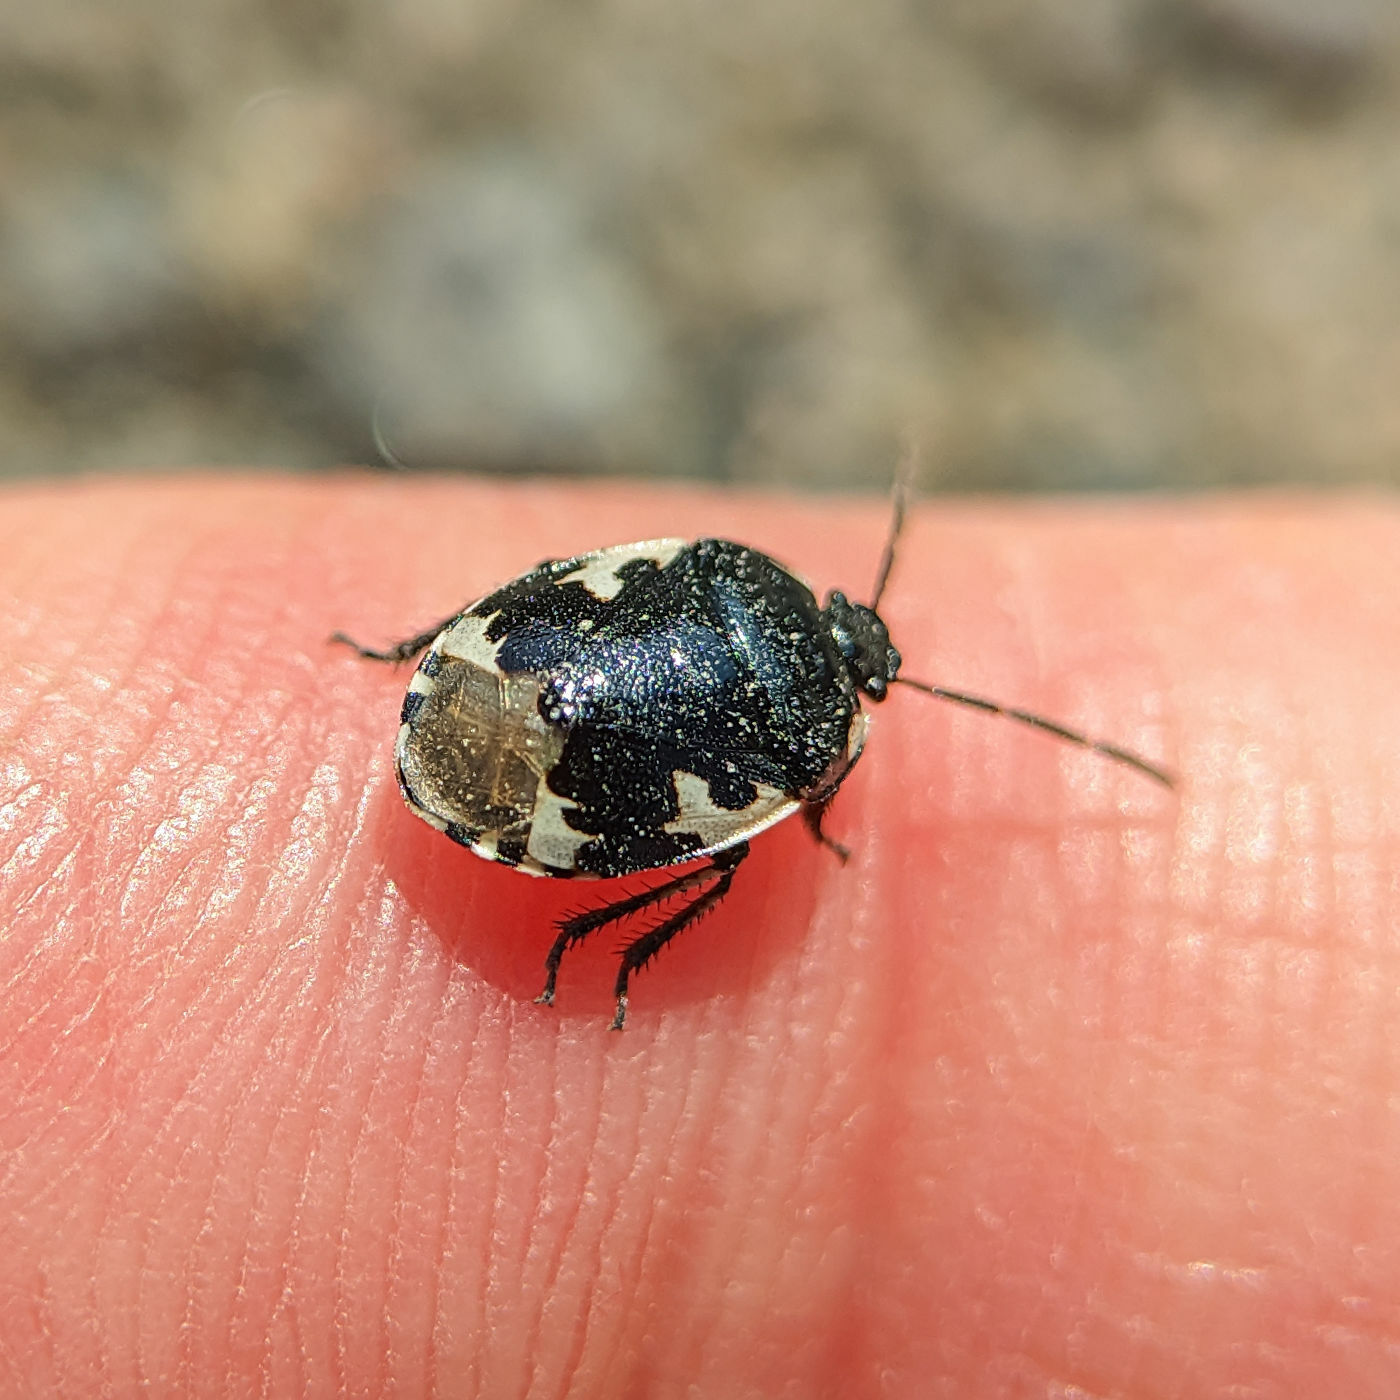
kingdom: Animalia
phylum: Arthropoda
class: Insecta
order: Hemiptera
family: Cydnidae
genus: Tritomegas
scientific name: Tritomegas bicolor
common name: Pied shieldbug
